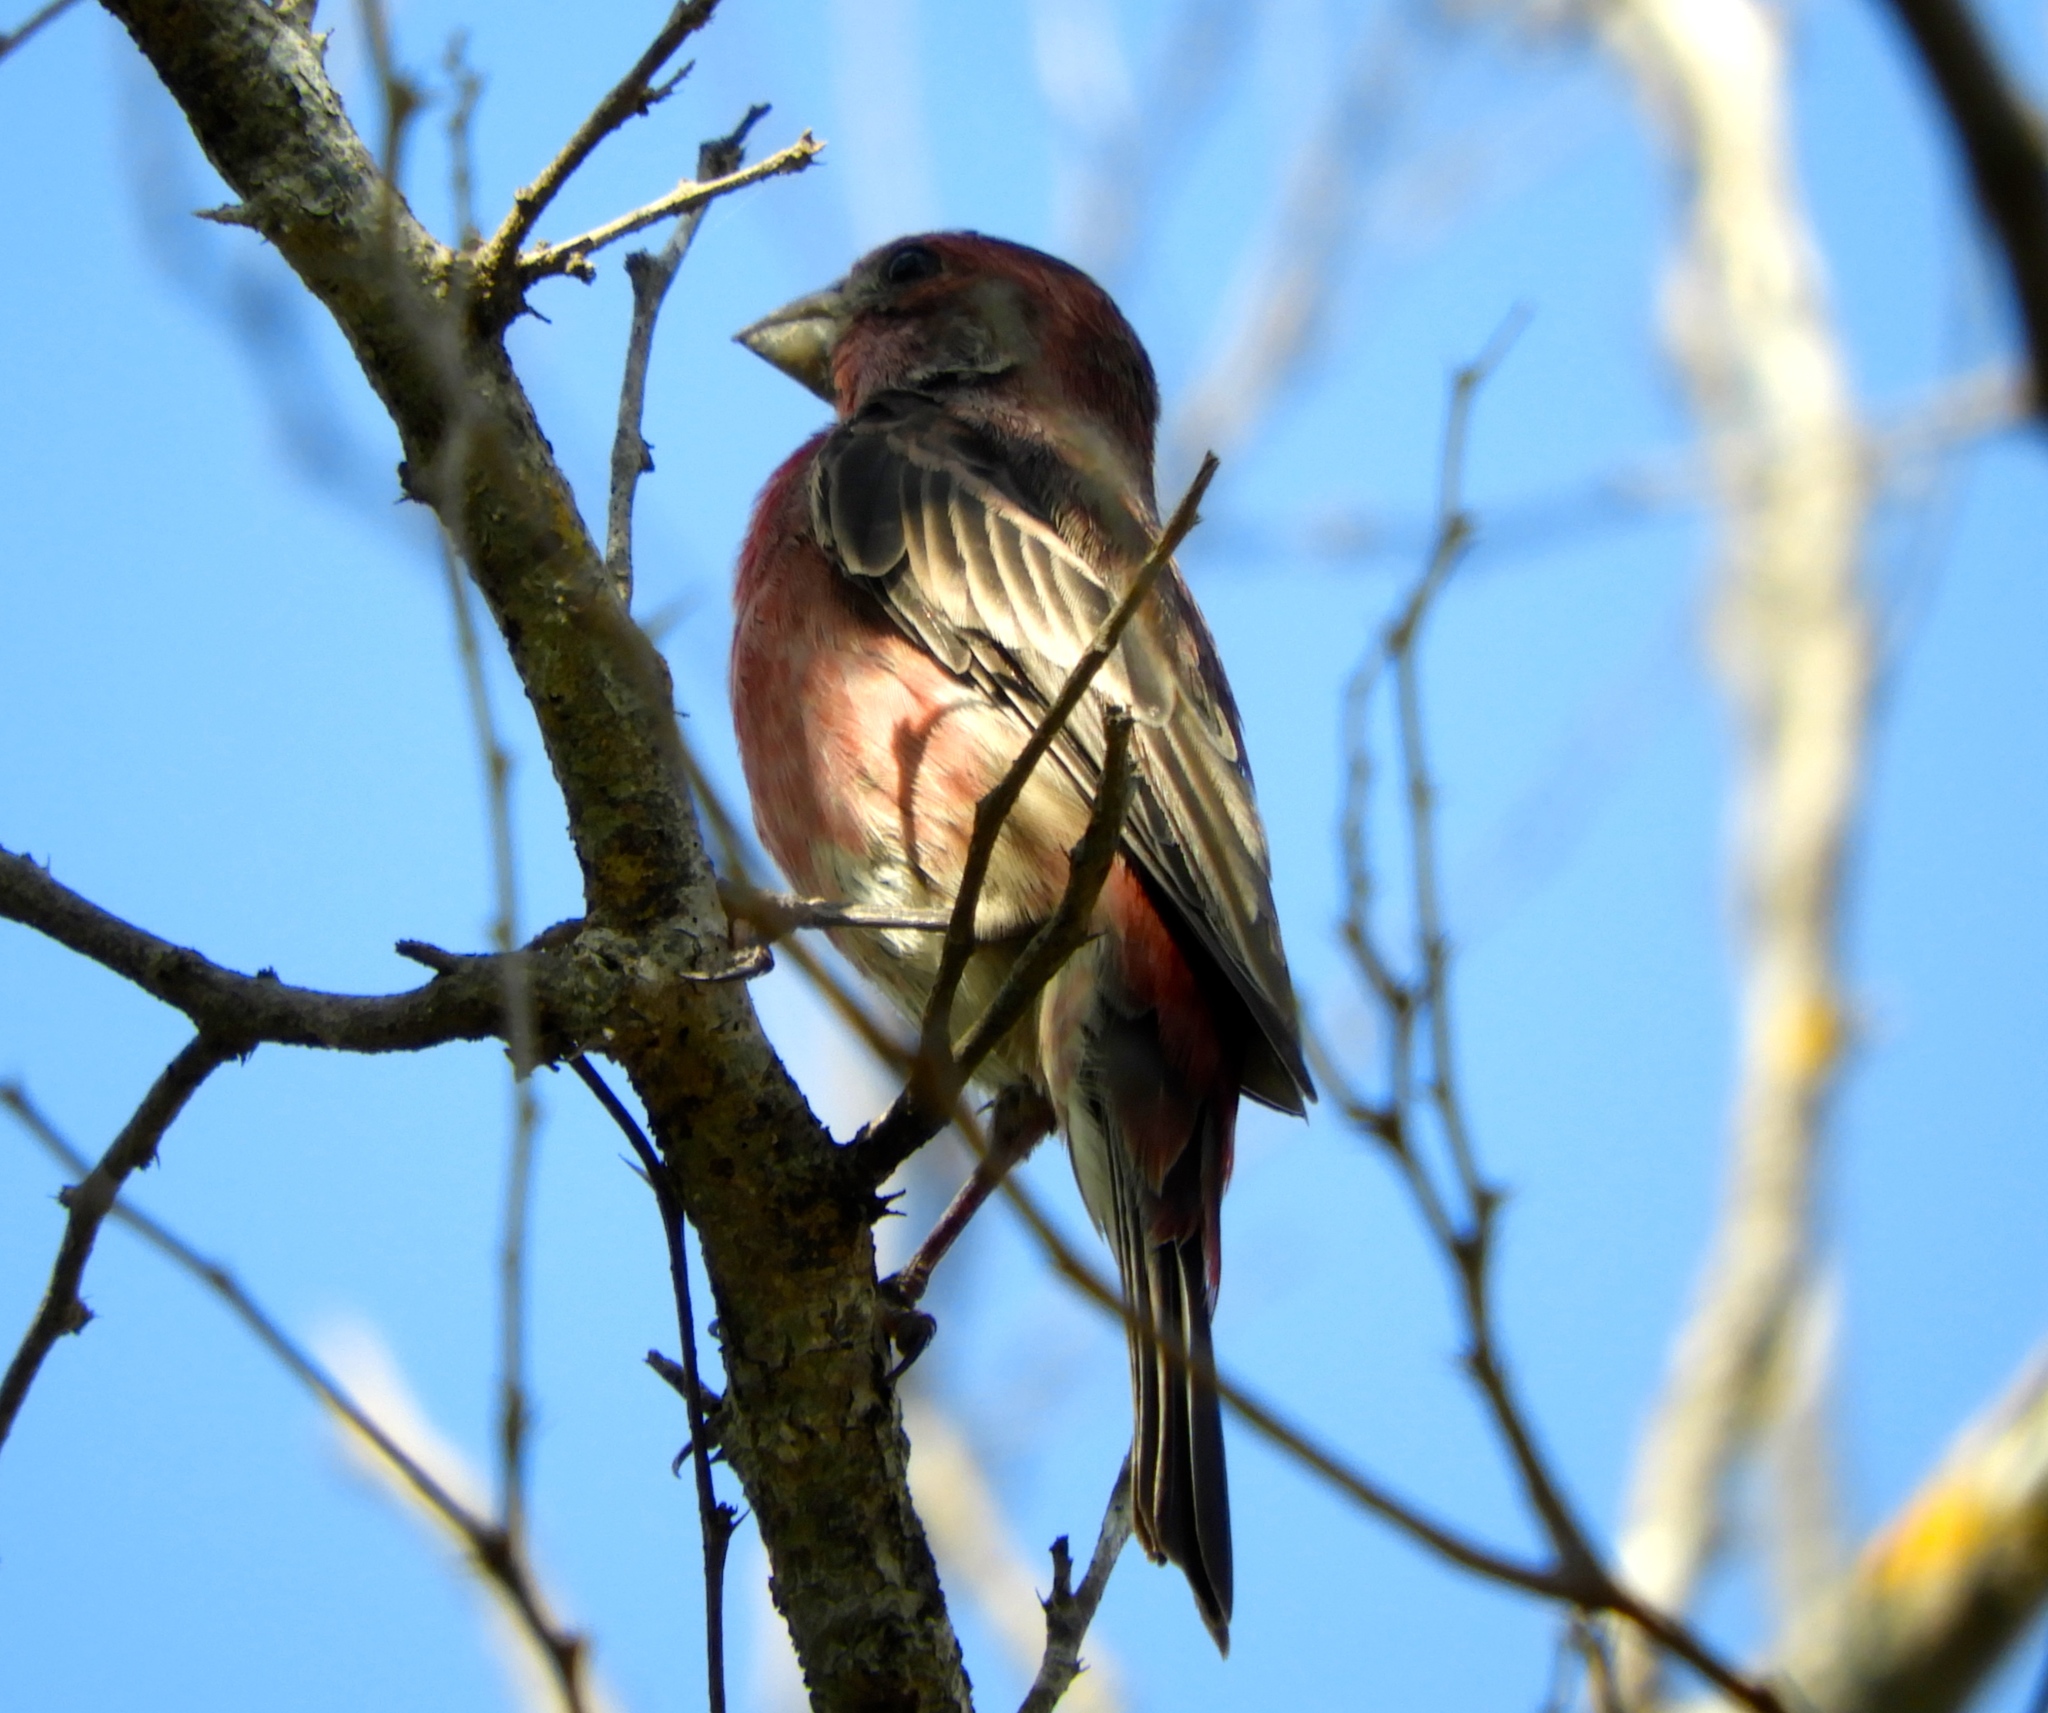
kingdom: Animalia
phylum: Chordata
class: Aves
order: Passeriformes
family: Fringillidae
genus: Haemorhous
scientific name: Haemorhous mexicanus
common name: House finch
